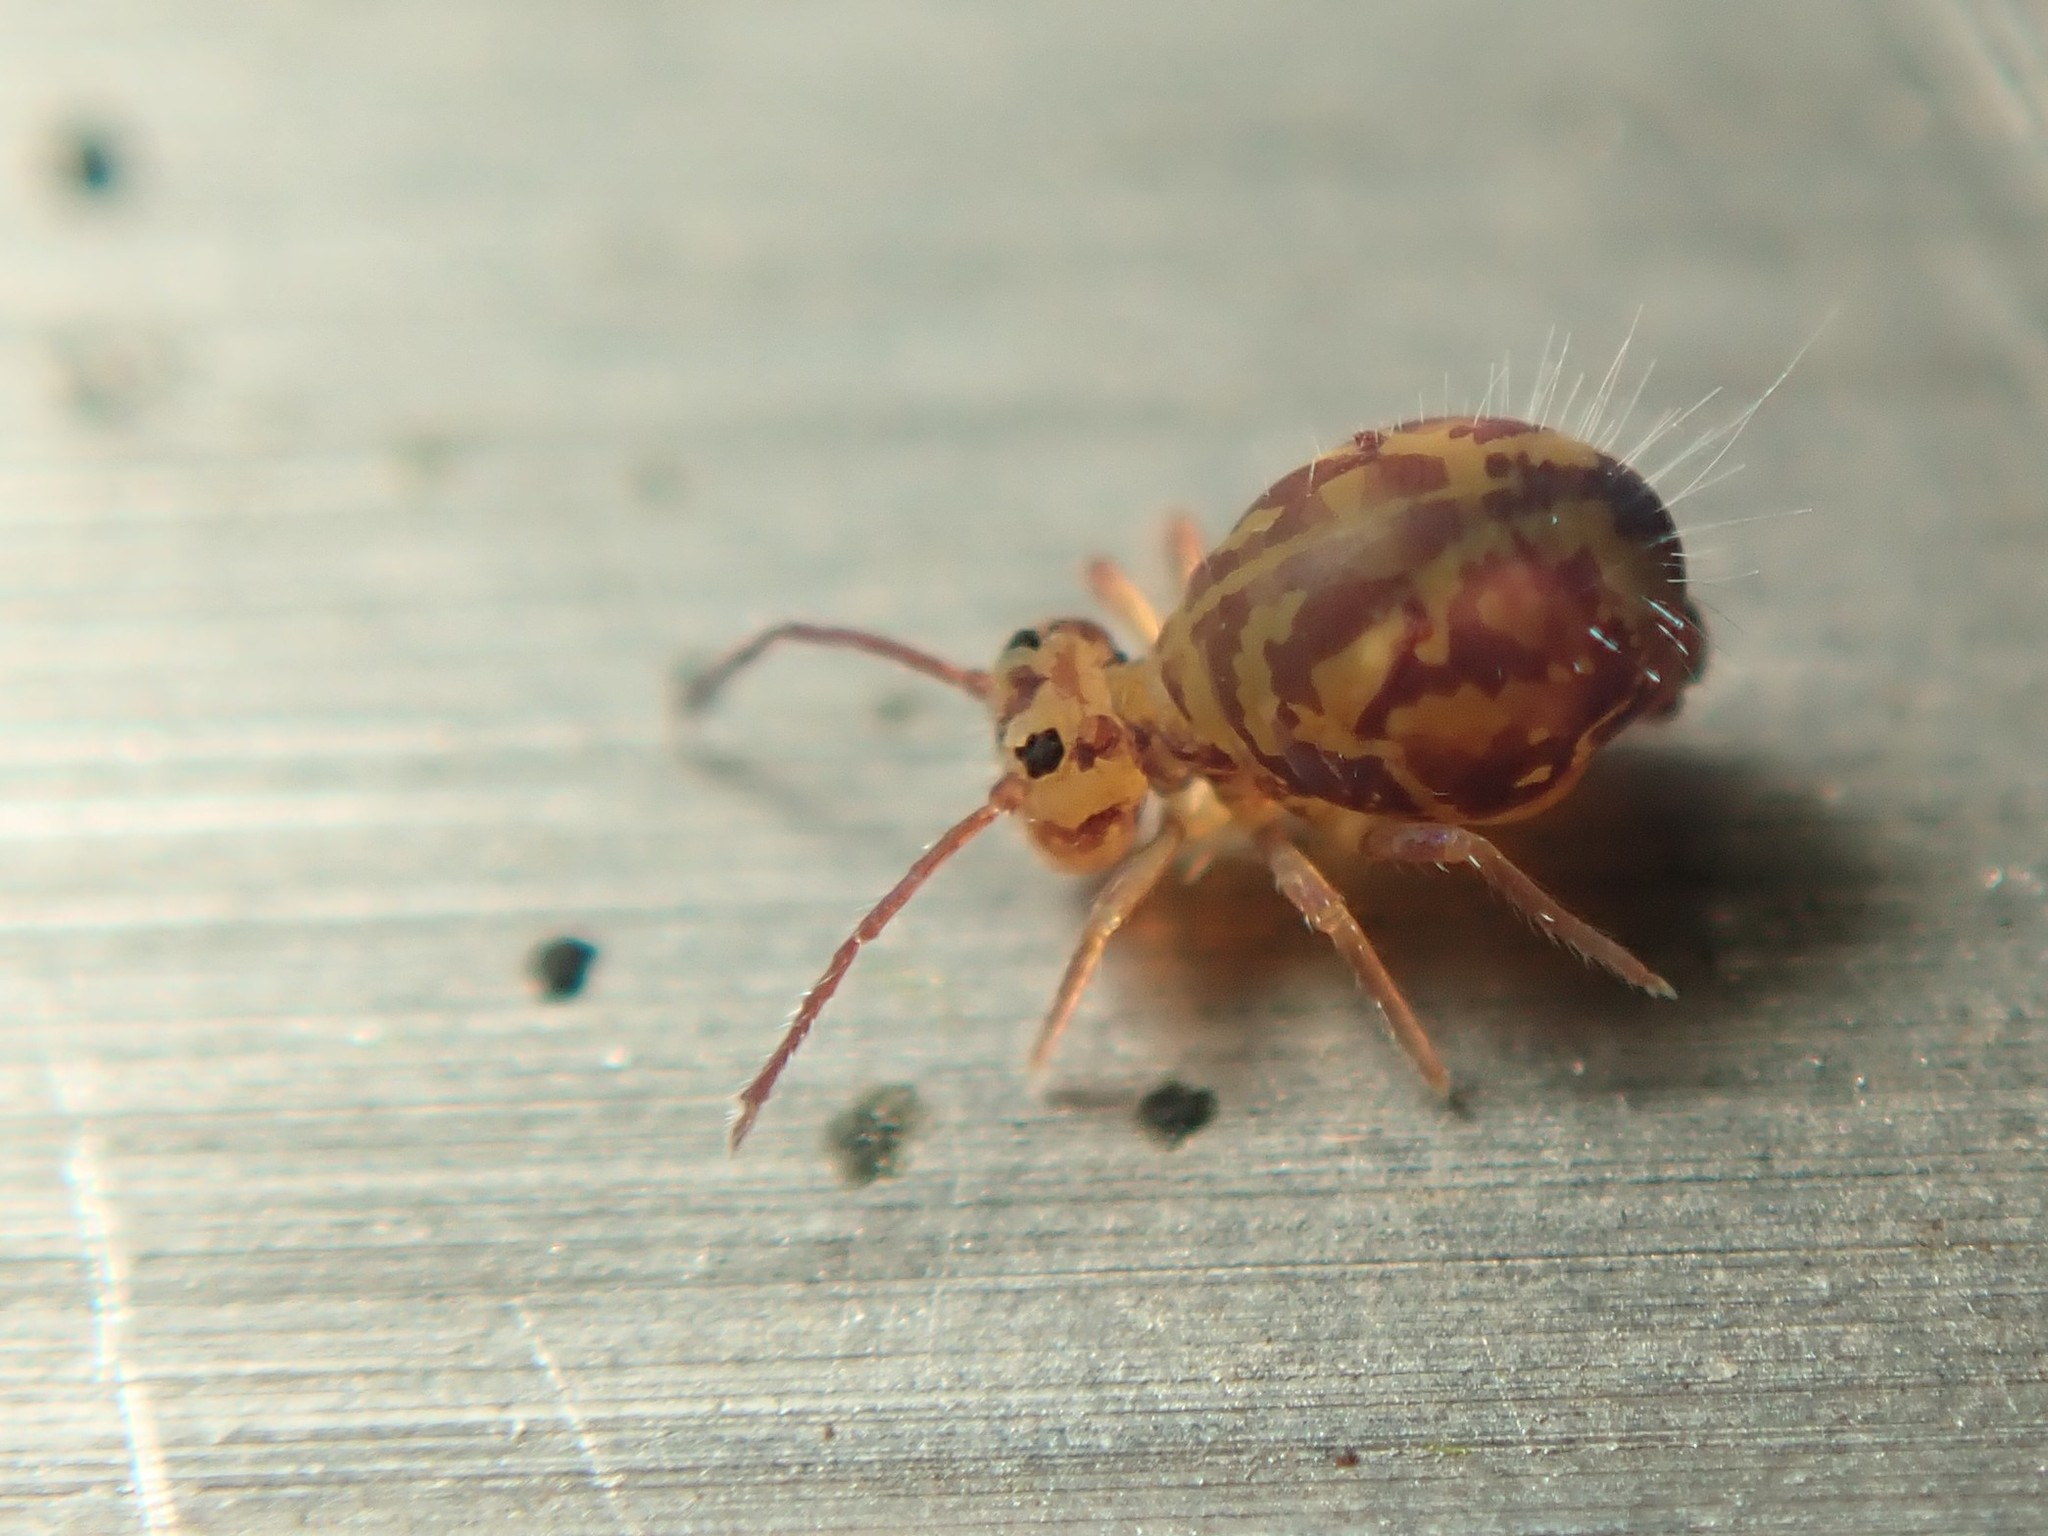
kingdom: Animalia
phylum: Arthropoda
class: Collembola
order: Symphypleona
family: Dicyrtomidae
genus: Dicyrtomina
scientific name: Dicyrtomina ornata
